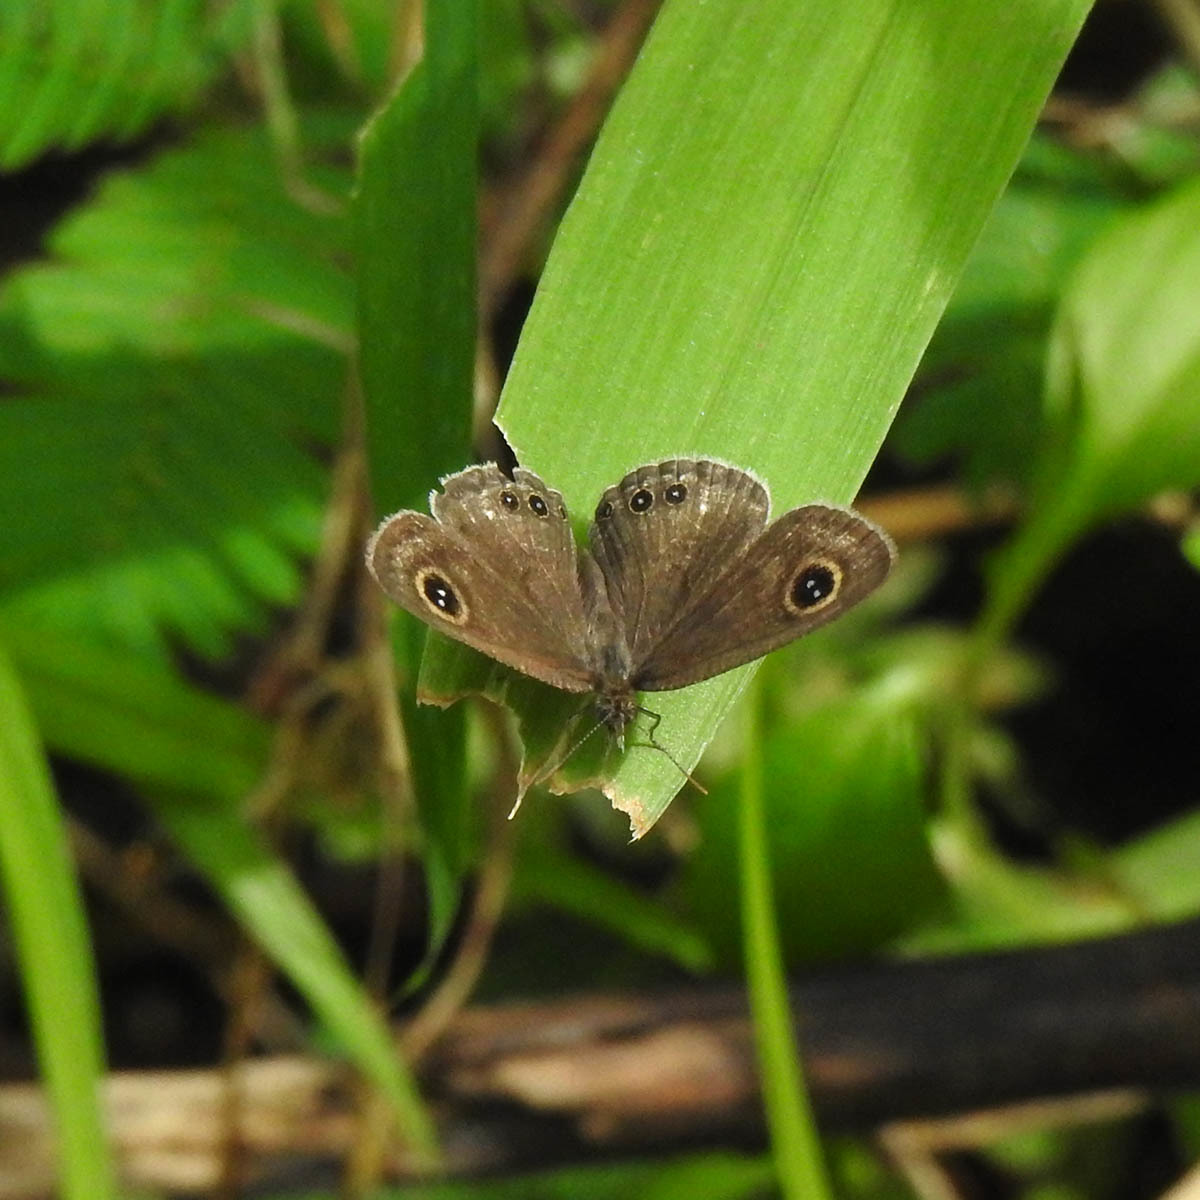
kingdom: Animalia
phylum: Arthropoda
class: Insecta
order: Lepidoptera
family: Nymphalidae
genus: Ypthima
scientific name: Ypthima huebneri
